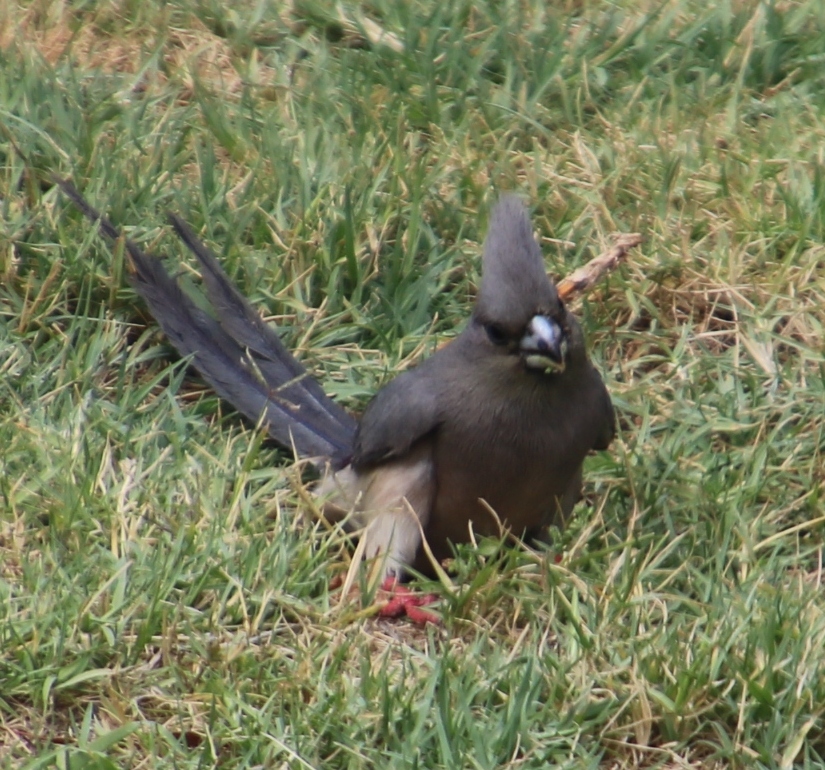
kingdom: Animalia
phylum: Chordata
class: Aves
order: Coliiformes
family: Coliidae
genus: Colius
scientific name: Colius colius
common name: White-backed mousebird
